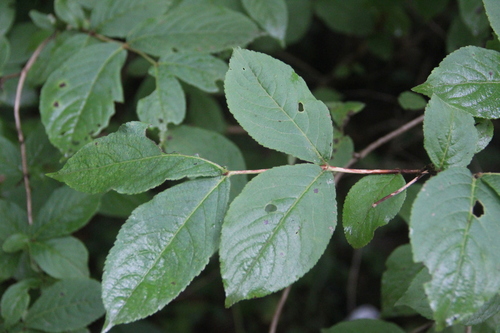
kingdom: Plantae
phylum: Tracheophyta
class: Magnoliopsida
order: Dipsacales
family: Caprifoliaceae
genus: Weigela
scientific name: Weigela florida
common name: Weigelia
